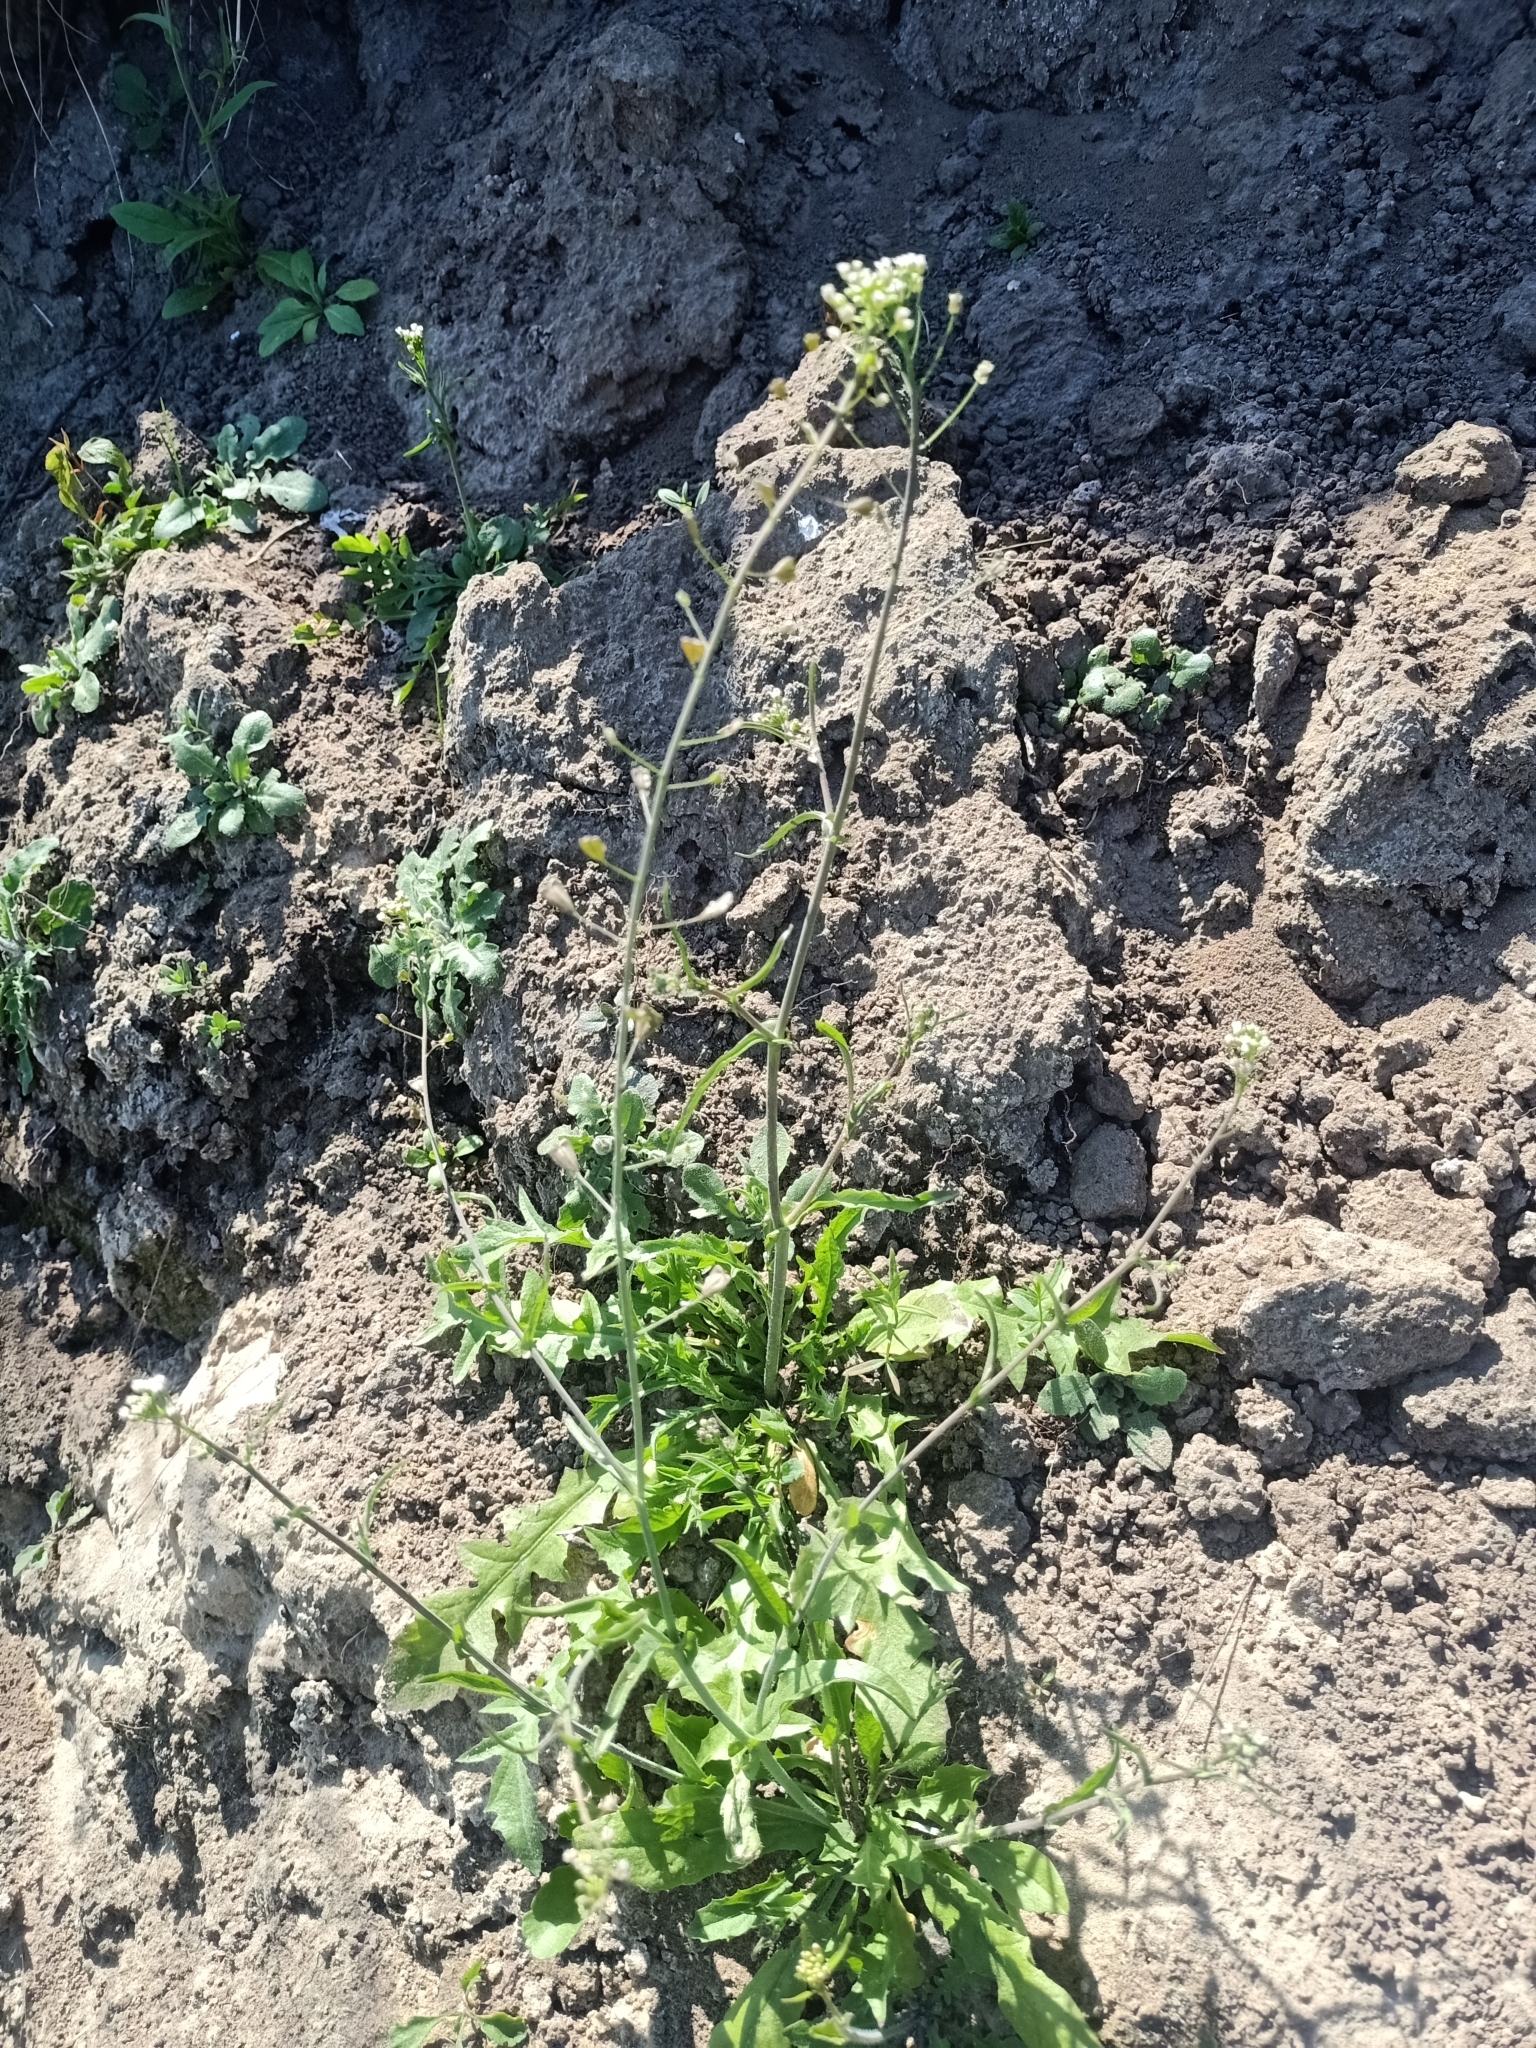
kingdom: Plantae
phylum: Tracheophyta
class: Magnoliopsida
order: Brassicales
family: Brassicaceae
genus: Capsella
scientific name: Capsella bursa-pastoris
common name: Shepherd's purse
